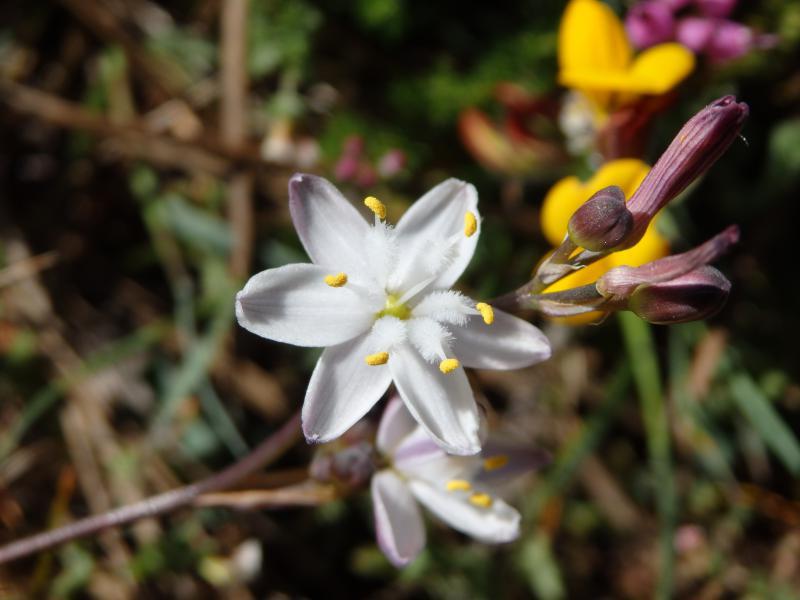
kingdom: Plantae
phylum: Tracheophyta
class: Liliopsida
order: Asparagales
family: Asphodelaceae
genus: Simethis
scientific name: Simethis mattiazzii
